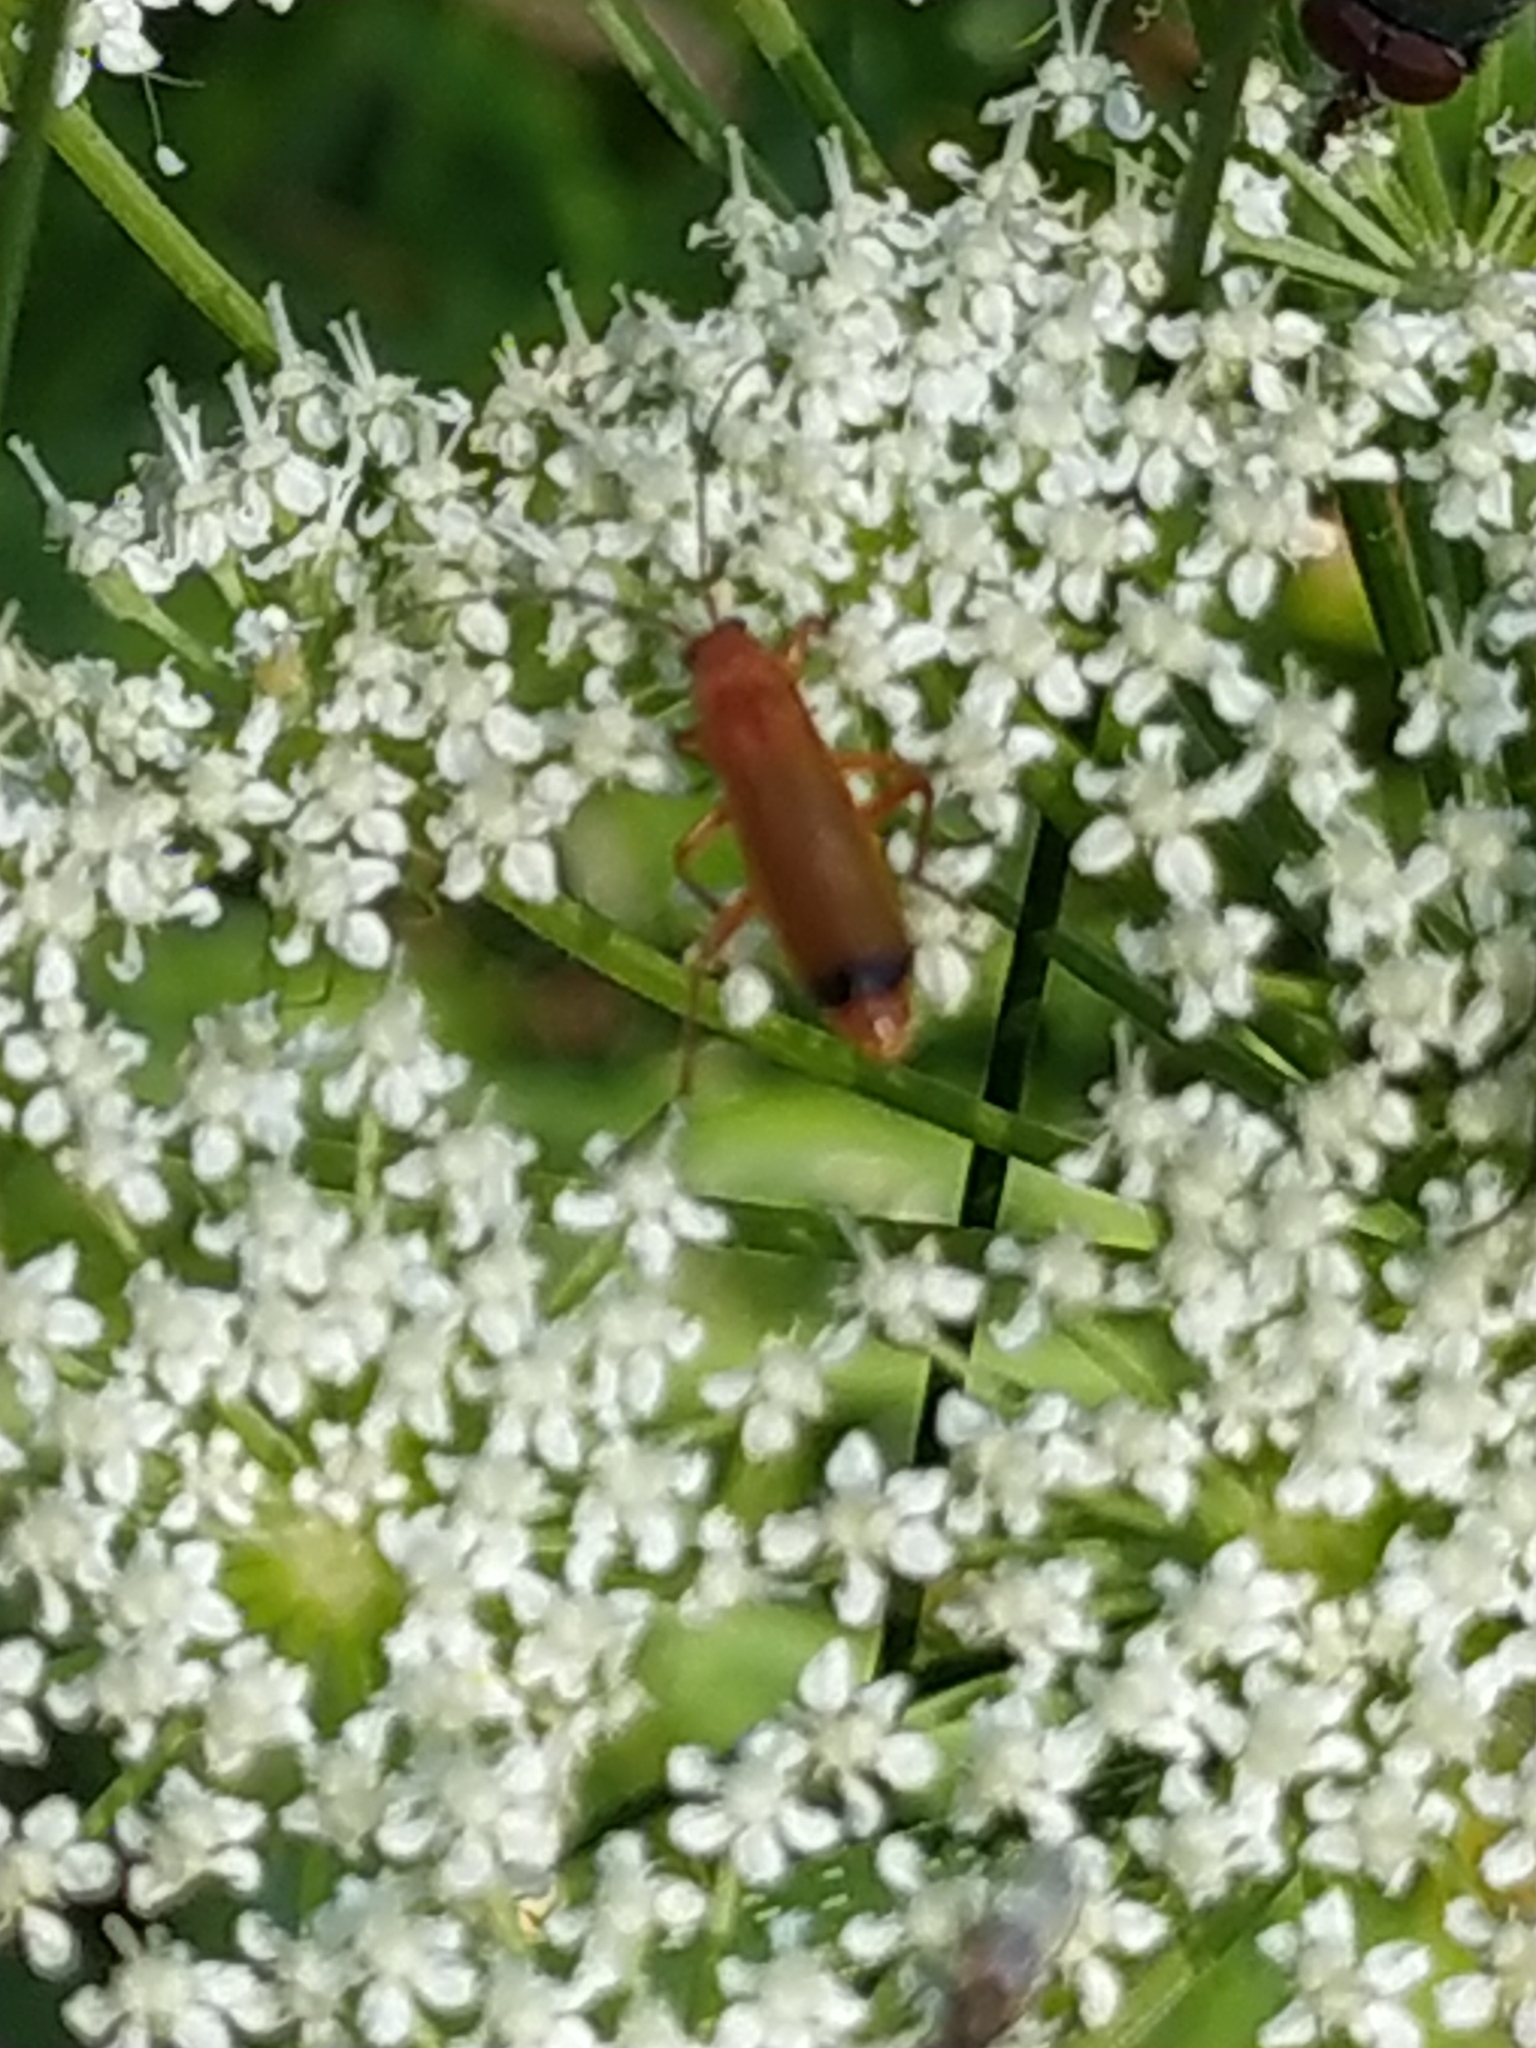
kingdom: Animalia
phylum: Arthropoda
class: Insecta
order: Coleoptera
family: Cantharidae
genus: Rhagonycha
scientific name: Rhagonycha fulva
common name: Common red soldier beetle
